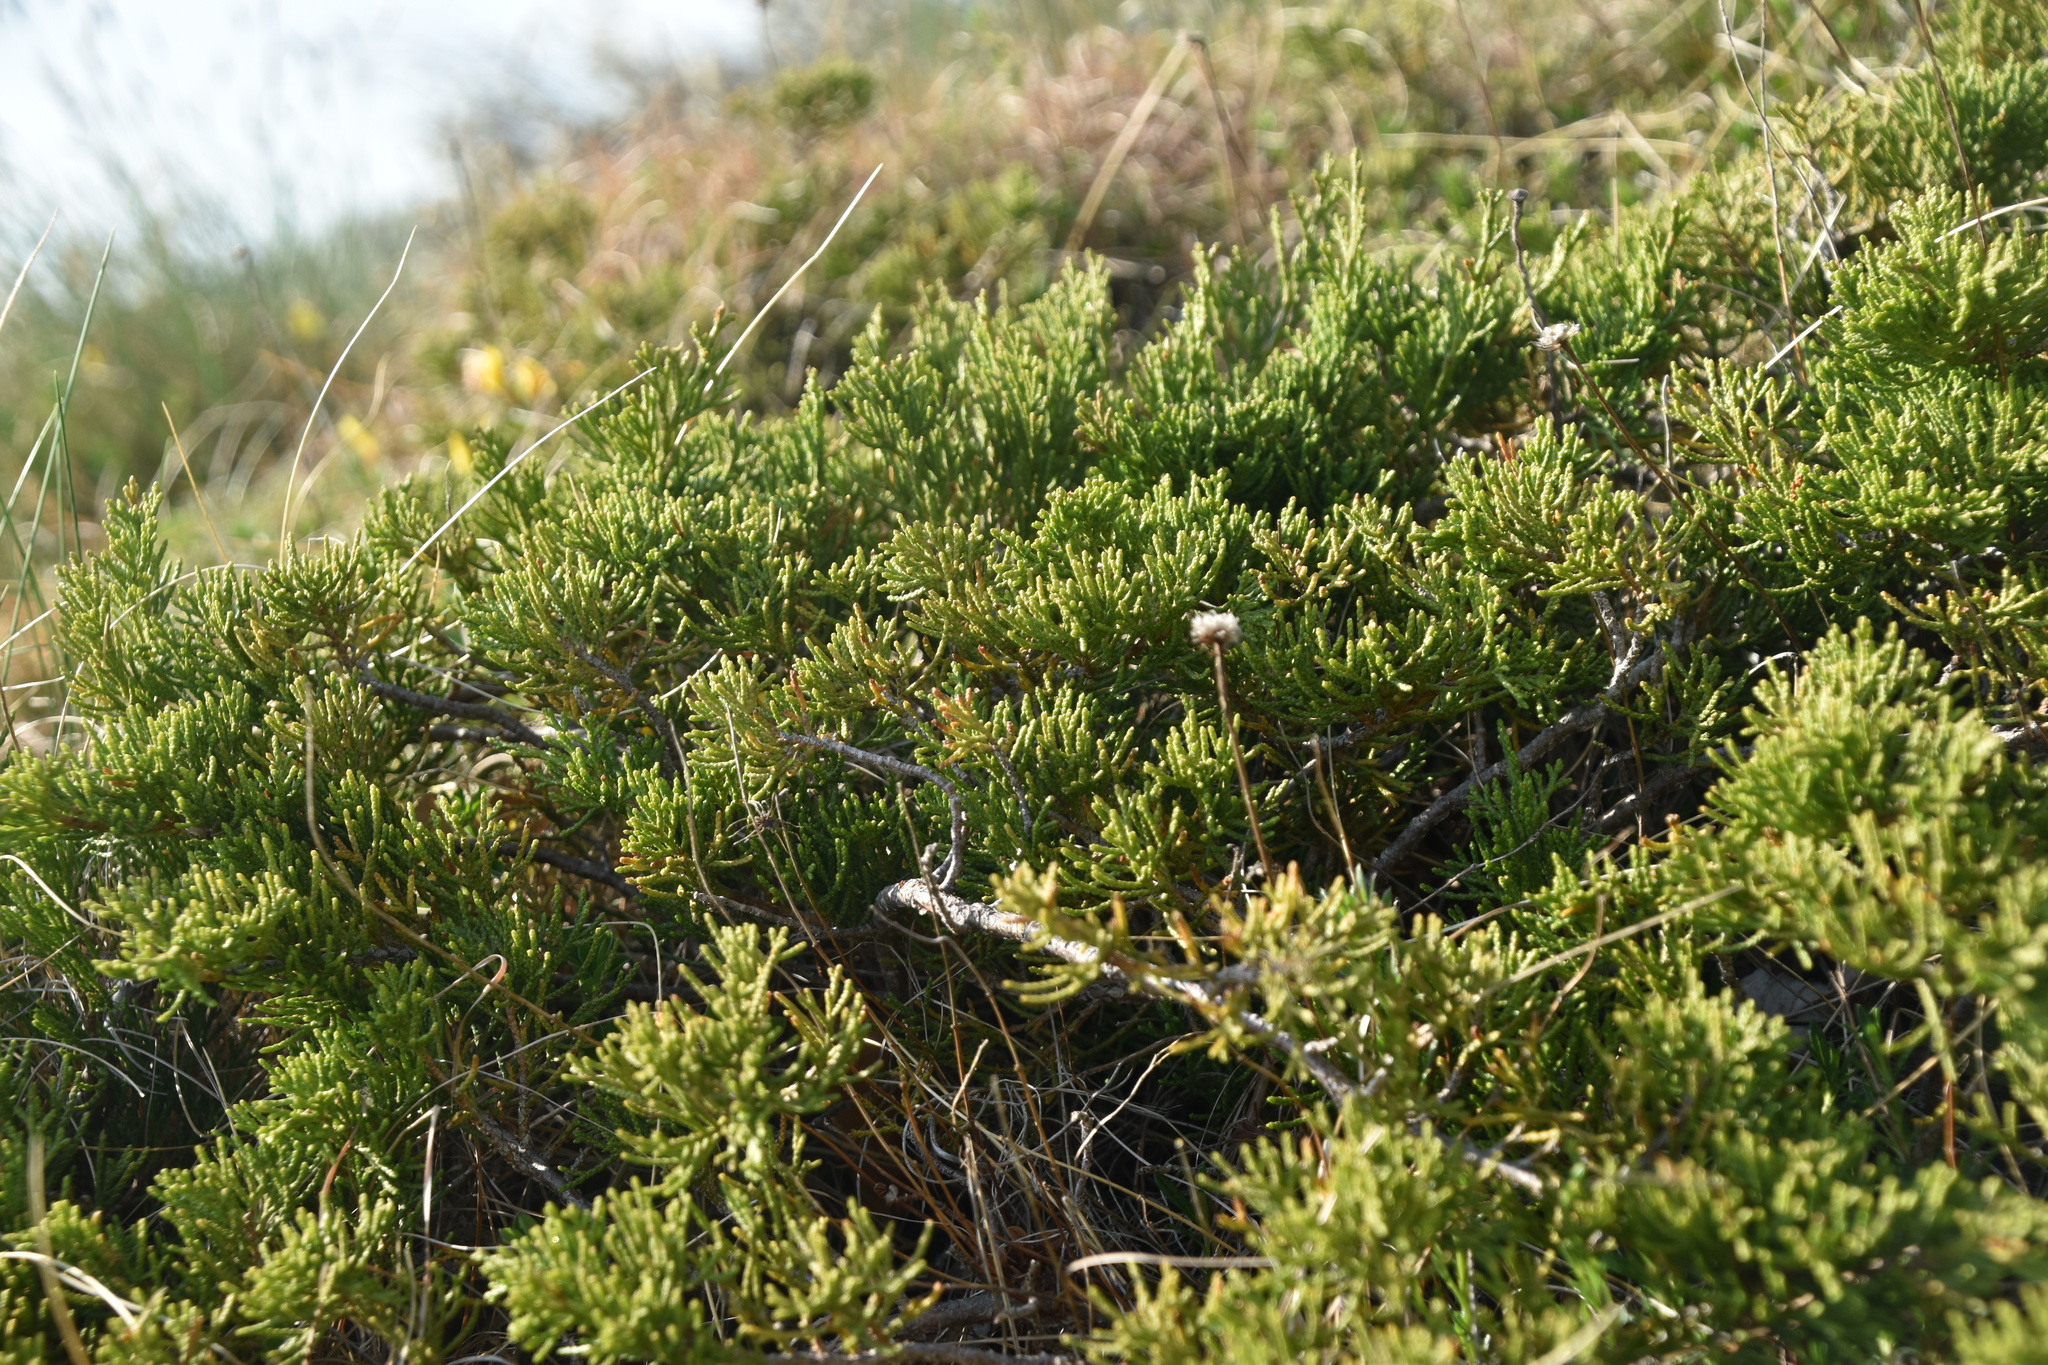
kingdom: Plantae
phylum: Tracheophyta
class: Pinopsida
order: Pinales
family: Cupressaceae
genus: Juniperus
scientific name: Juniperus sabina
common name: Savin
